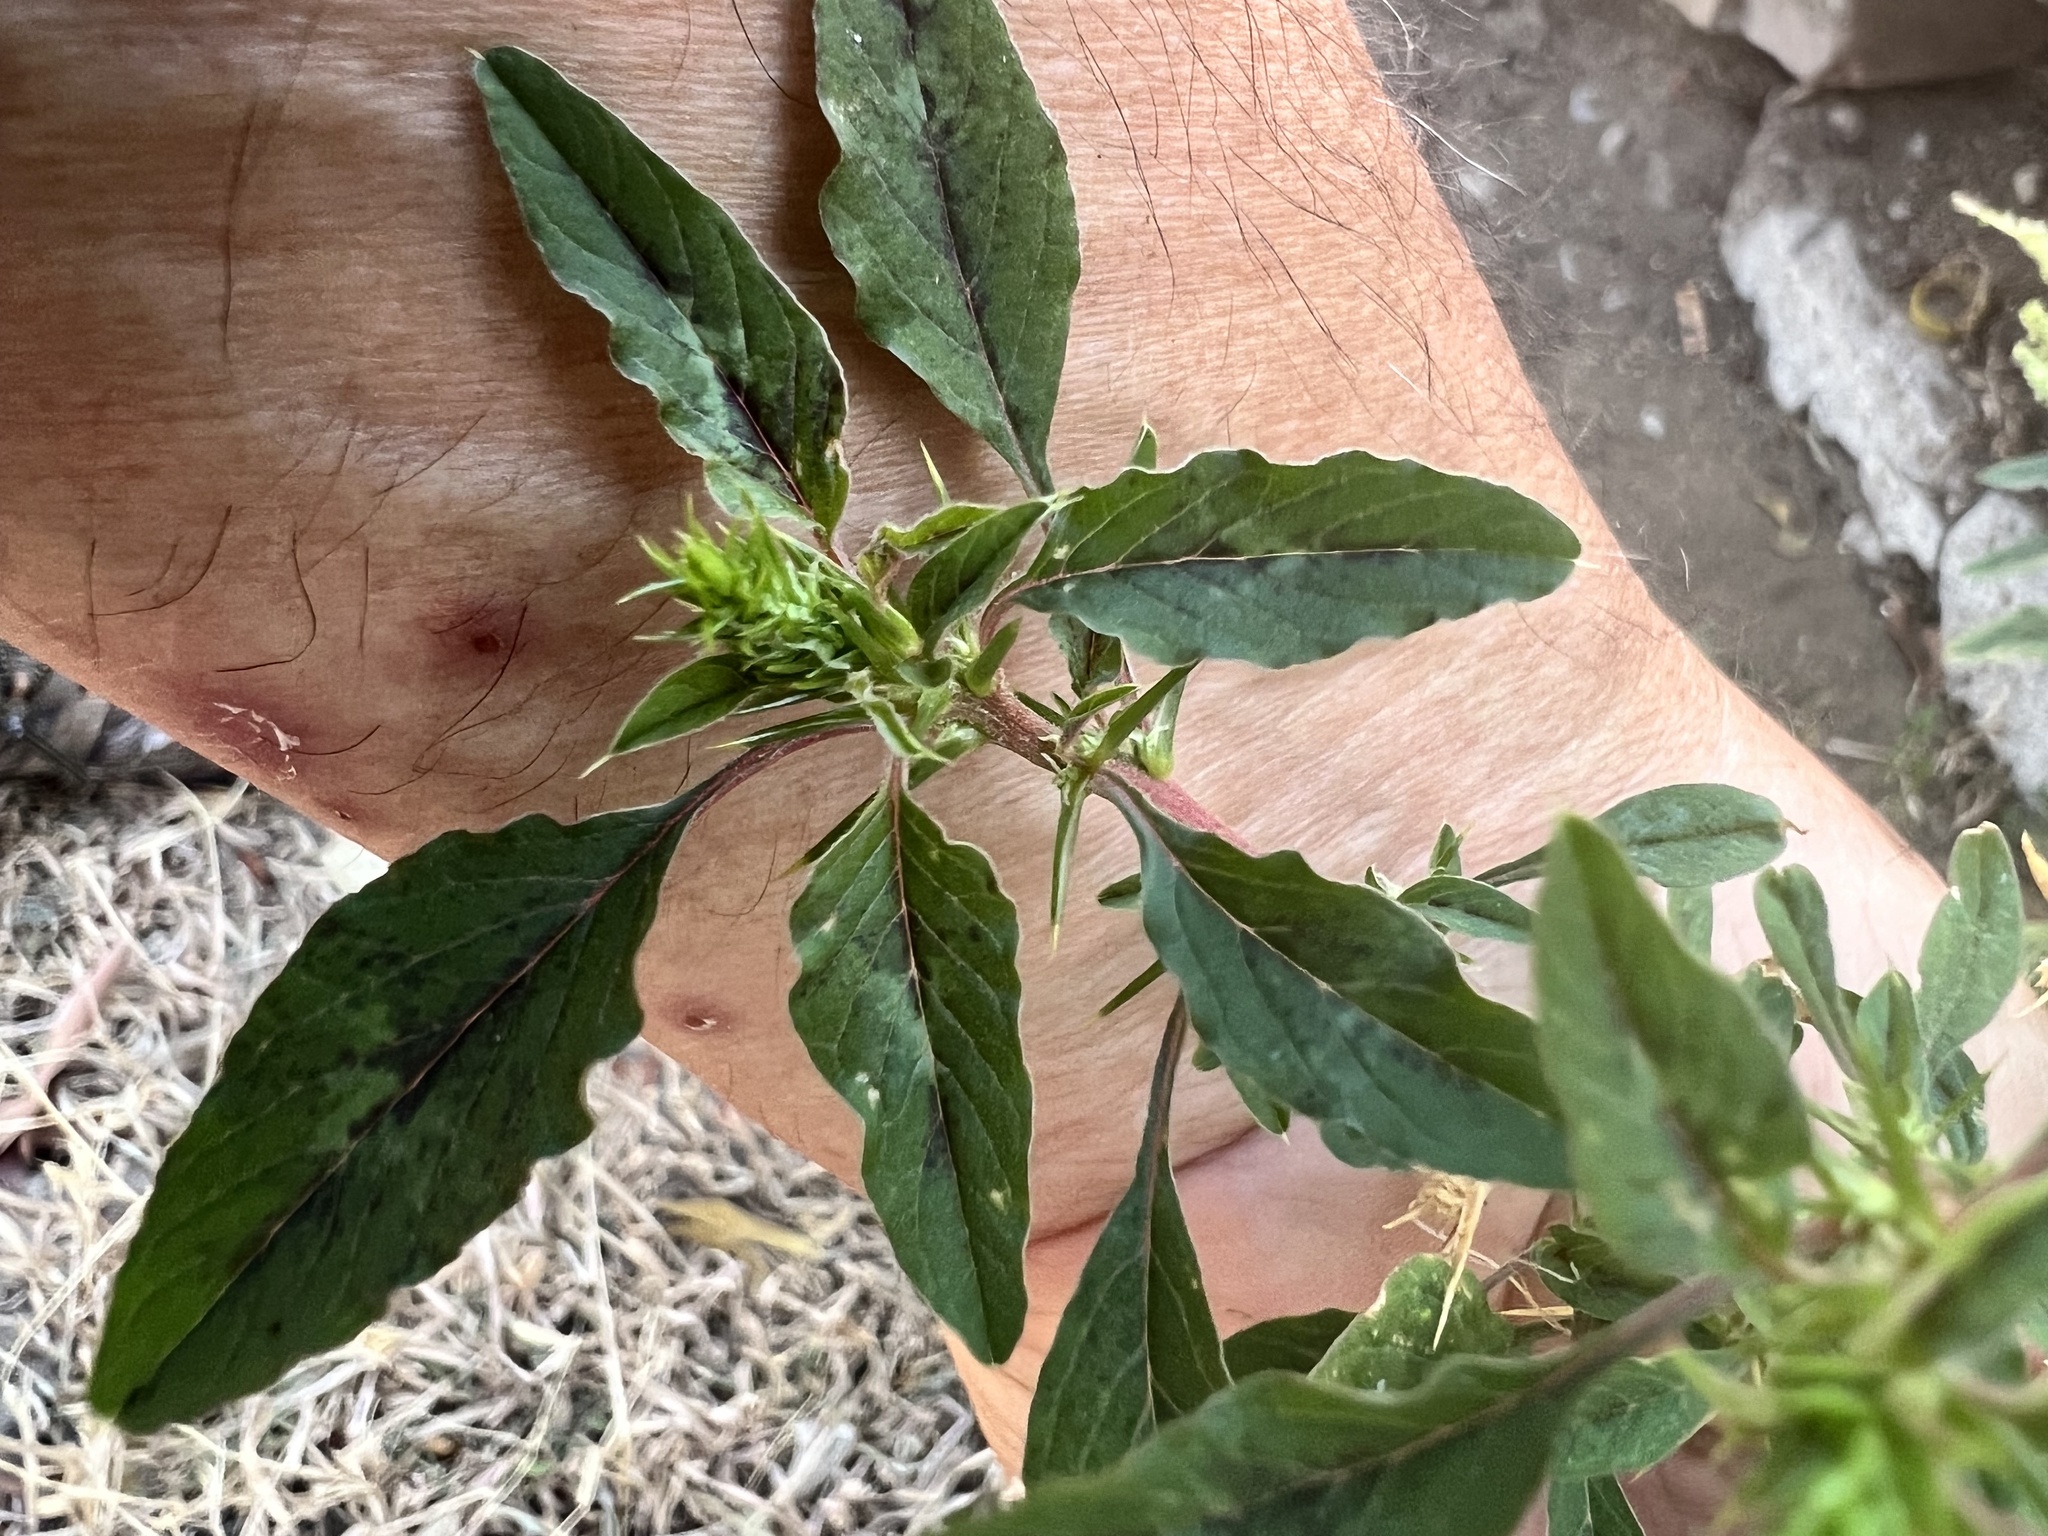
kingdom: Plantae
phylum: Tracheophyta
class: Magnoliopsida
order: Caryophyllales
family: Amaranthaceae
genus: Amaranthus
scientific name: Amaranthus spinosus
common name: Spiny amaranth
